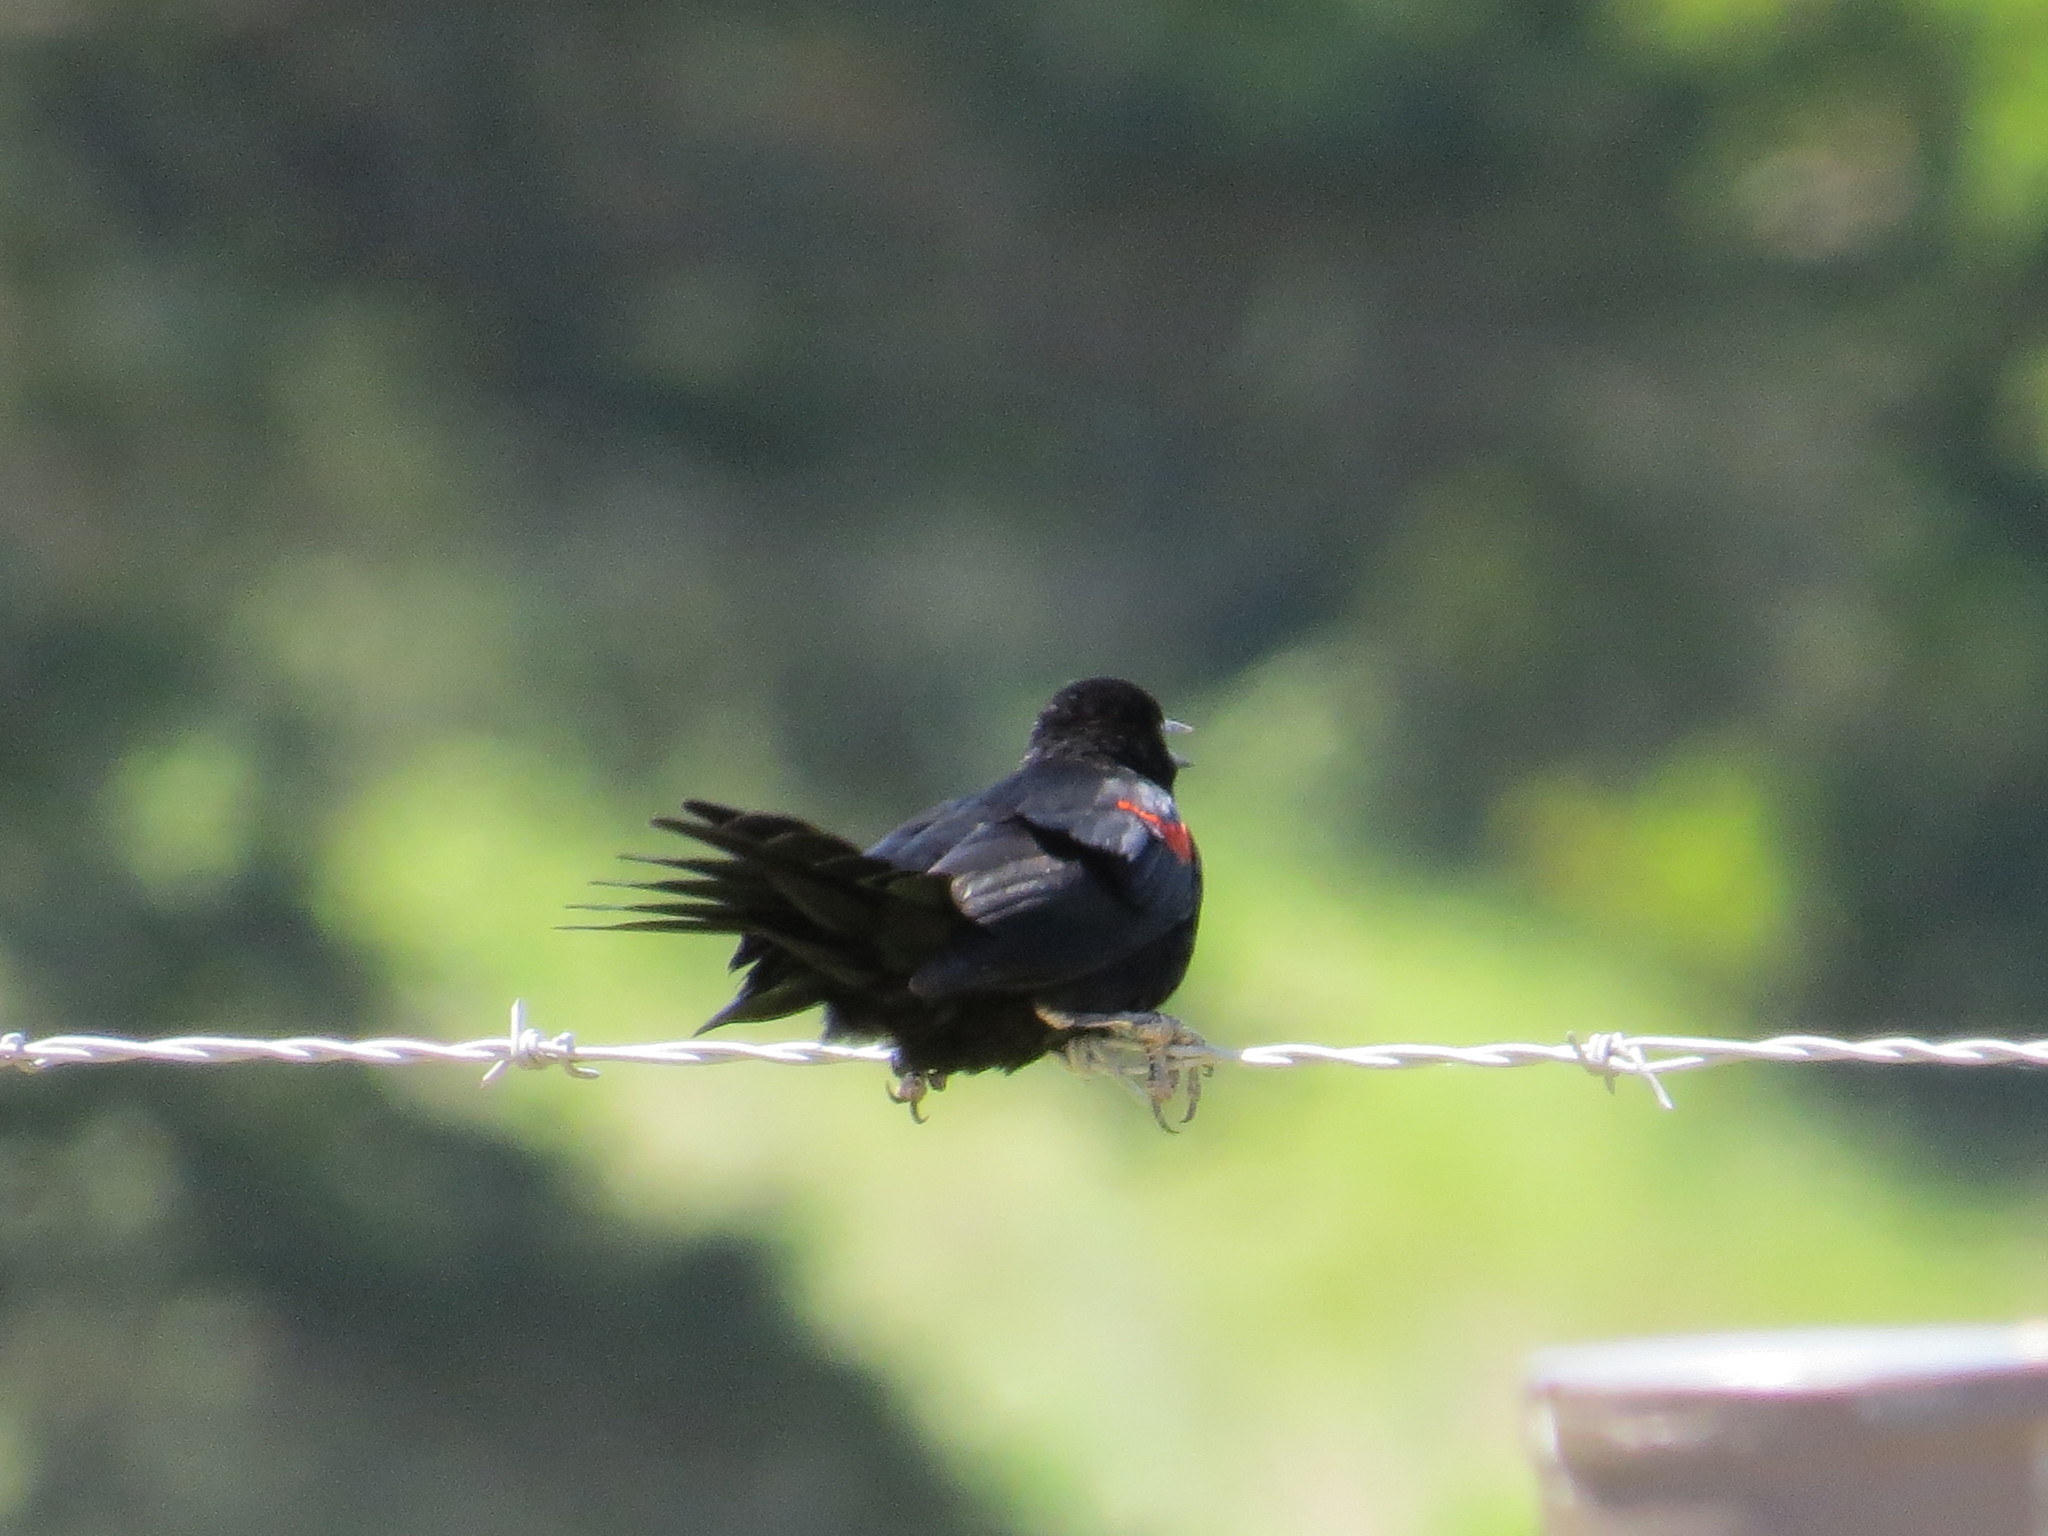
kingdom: Animalia
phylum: Chordata
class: Aves
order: Passeriformes
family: Icteridae
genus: Agelaius
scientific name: Agelaius phoeniceus
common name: Red-winged blackbird
